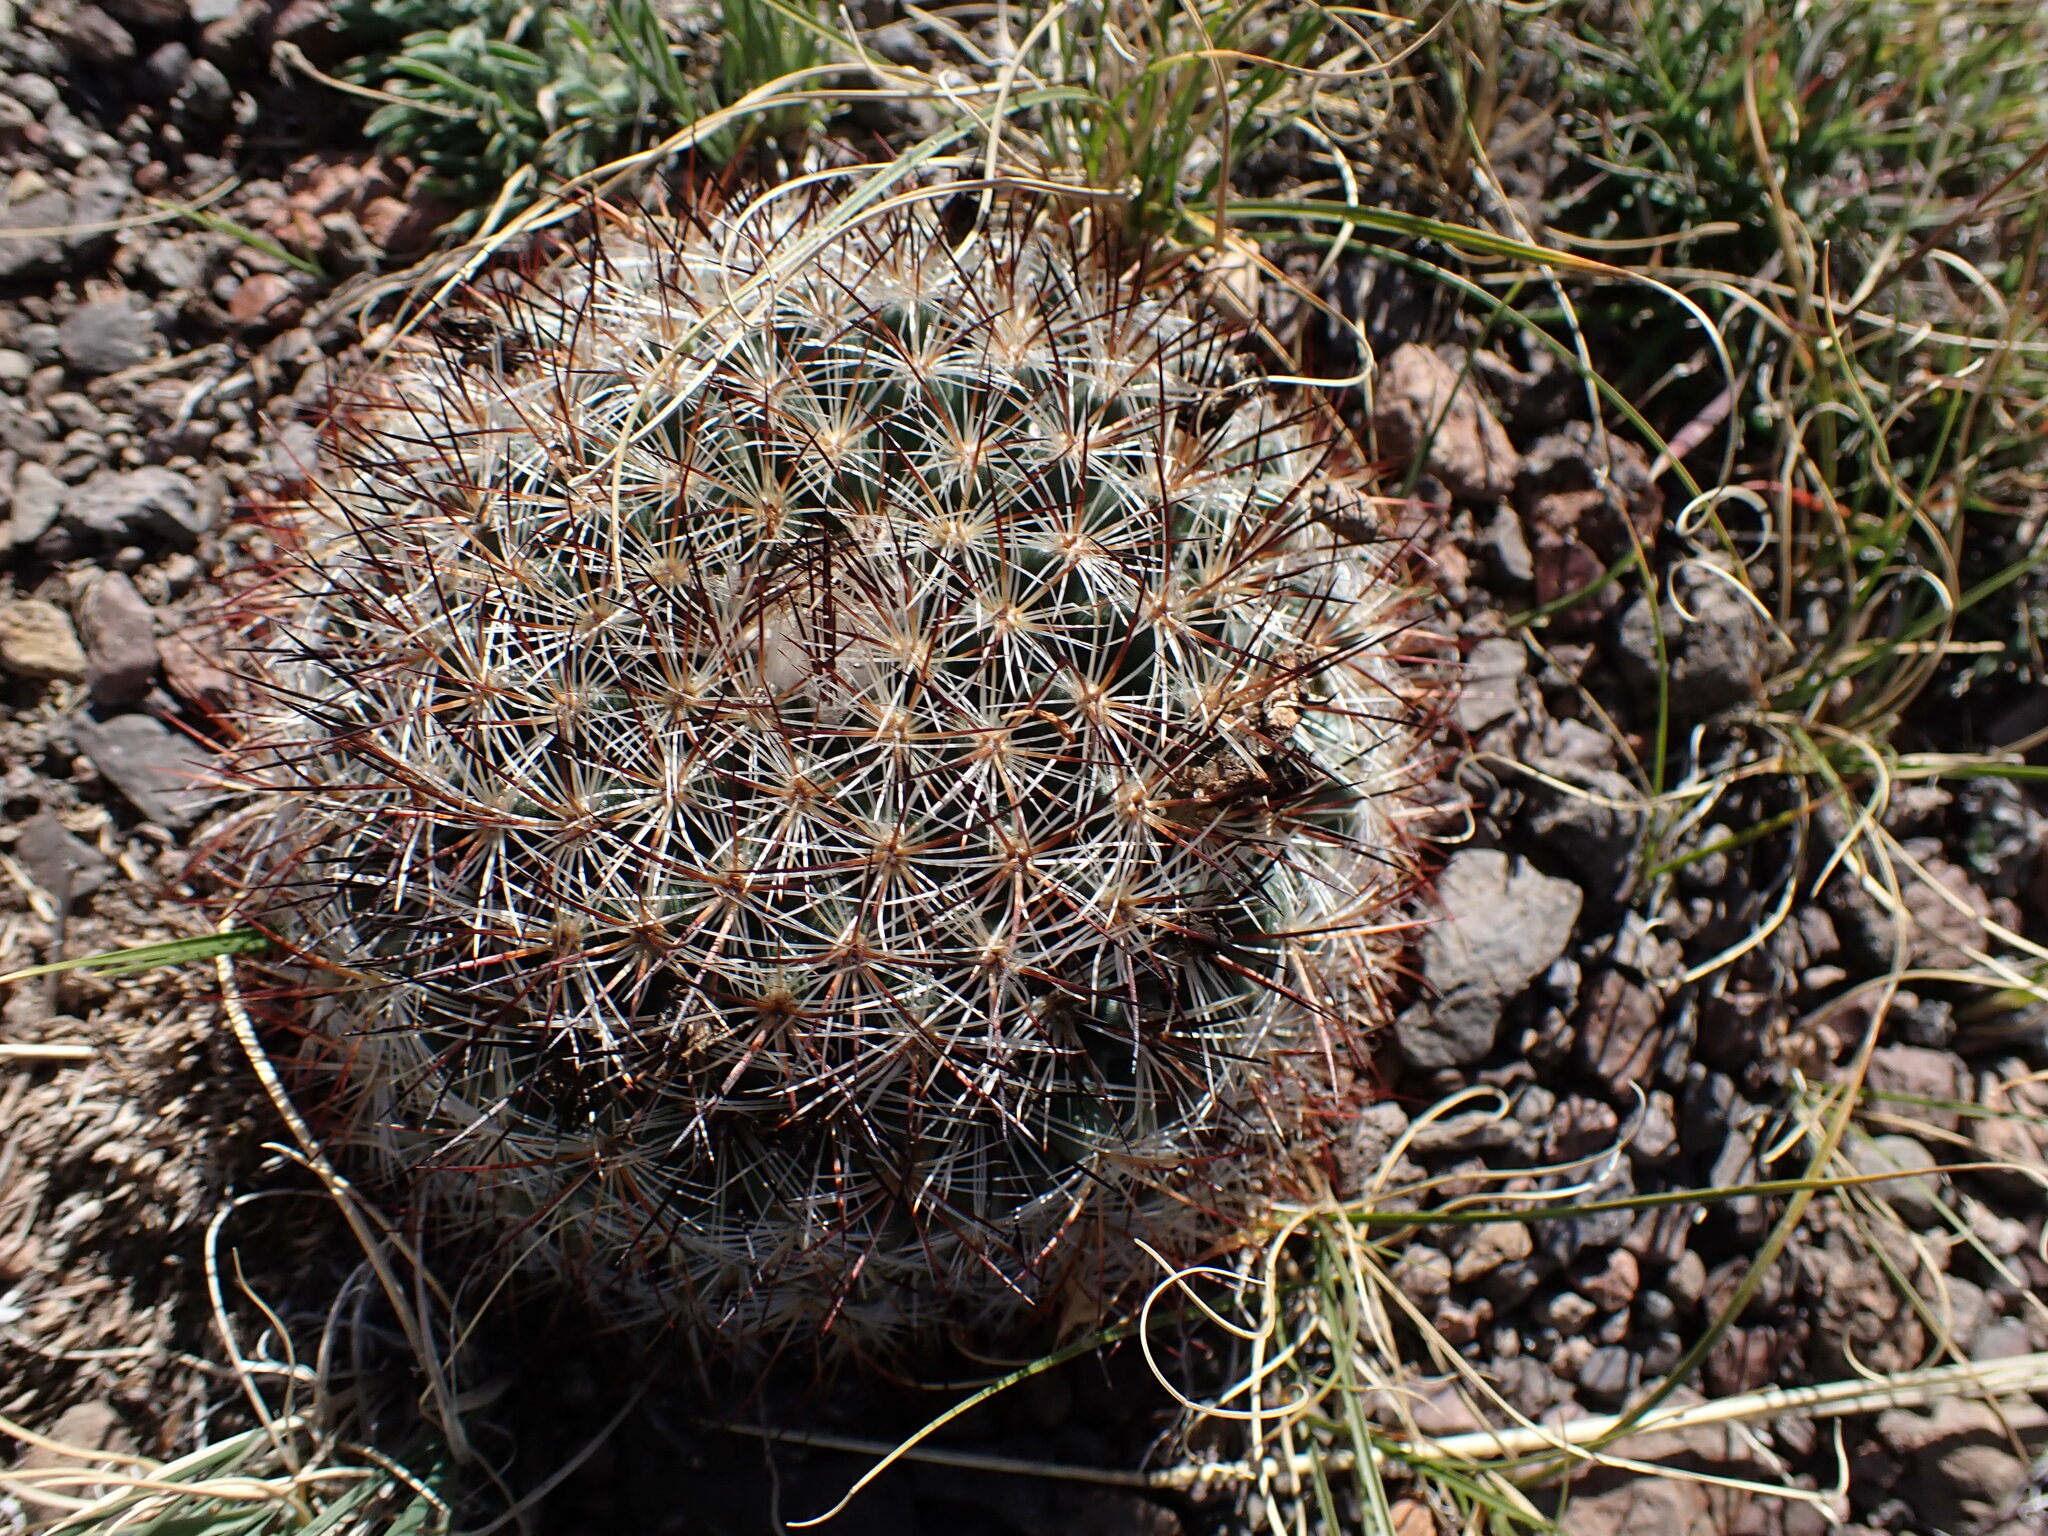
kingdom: Plantae
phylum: Tracheophyta
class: Magnoliopsida
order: Caryophyllales
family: Cactaceae
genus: Pediocactus
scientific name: Pediocactus simpsonii
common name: Simpson's hedgehog cactus
